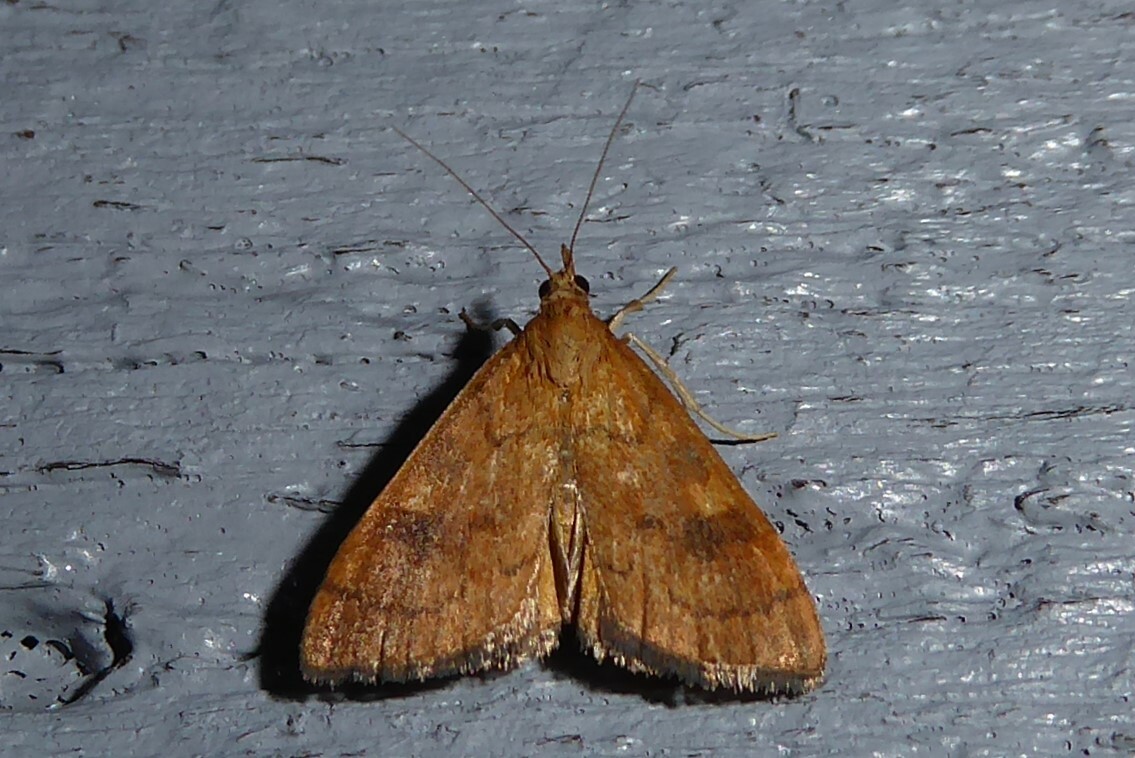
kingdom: Animalia
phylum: Arthropoda
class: Insecta
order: Lepidoptera
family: Crambidae
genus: Udea
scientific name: Udea Mnesictena flavidalis
